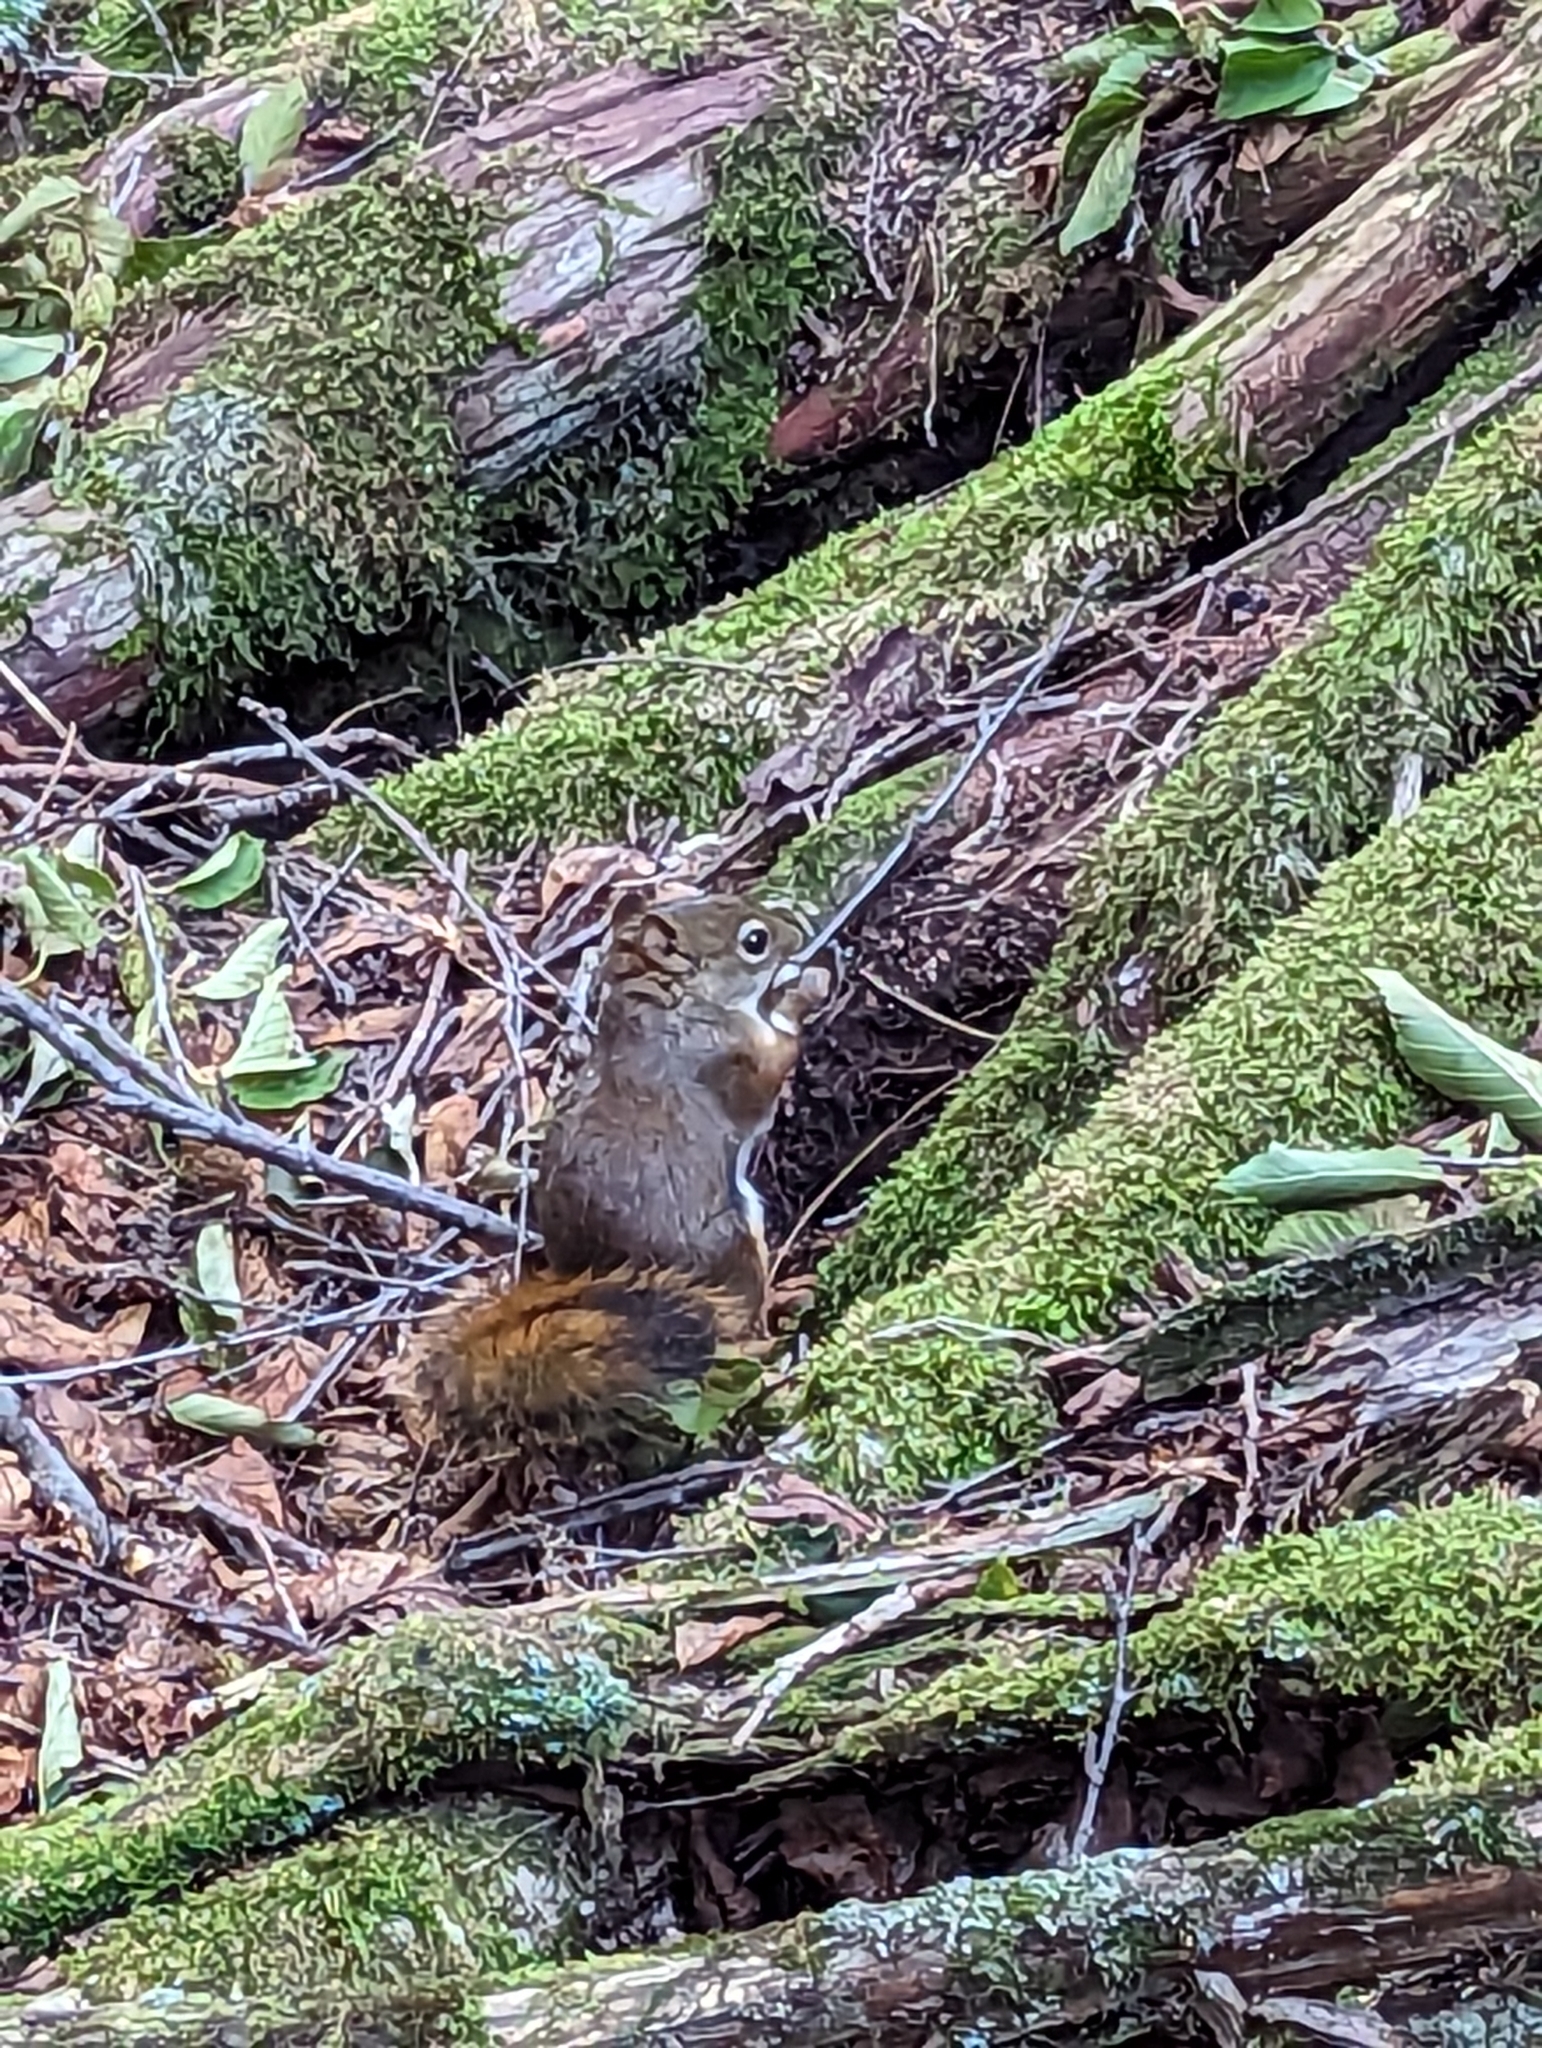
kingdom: Animalia
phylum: Chordata
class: Mammalia
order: Rodentia
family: Sciuridae
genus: Tamiasciurus
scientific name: Tamiasciurus hudsonicus
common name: Red squirrel
